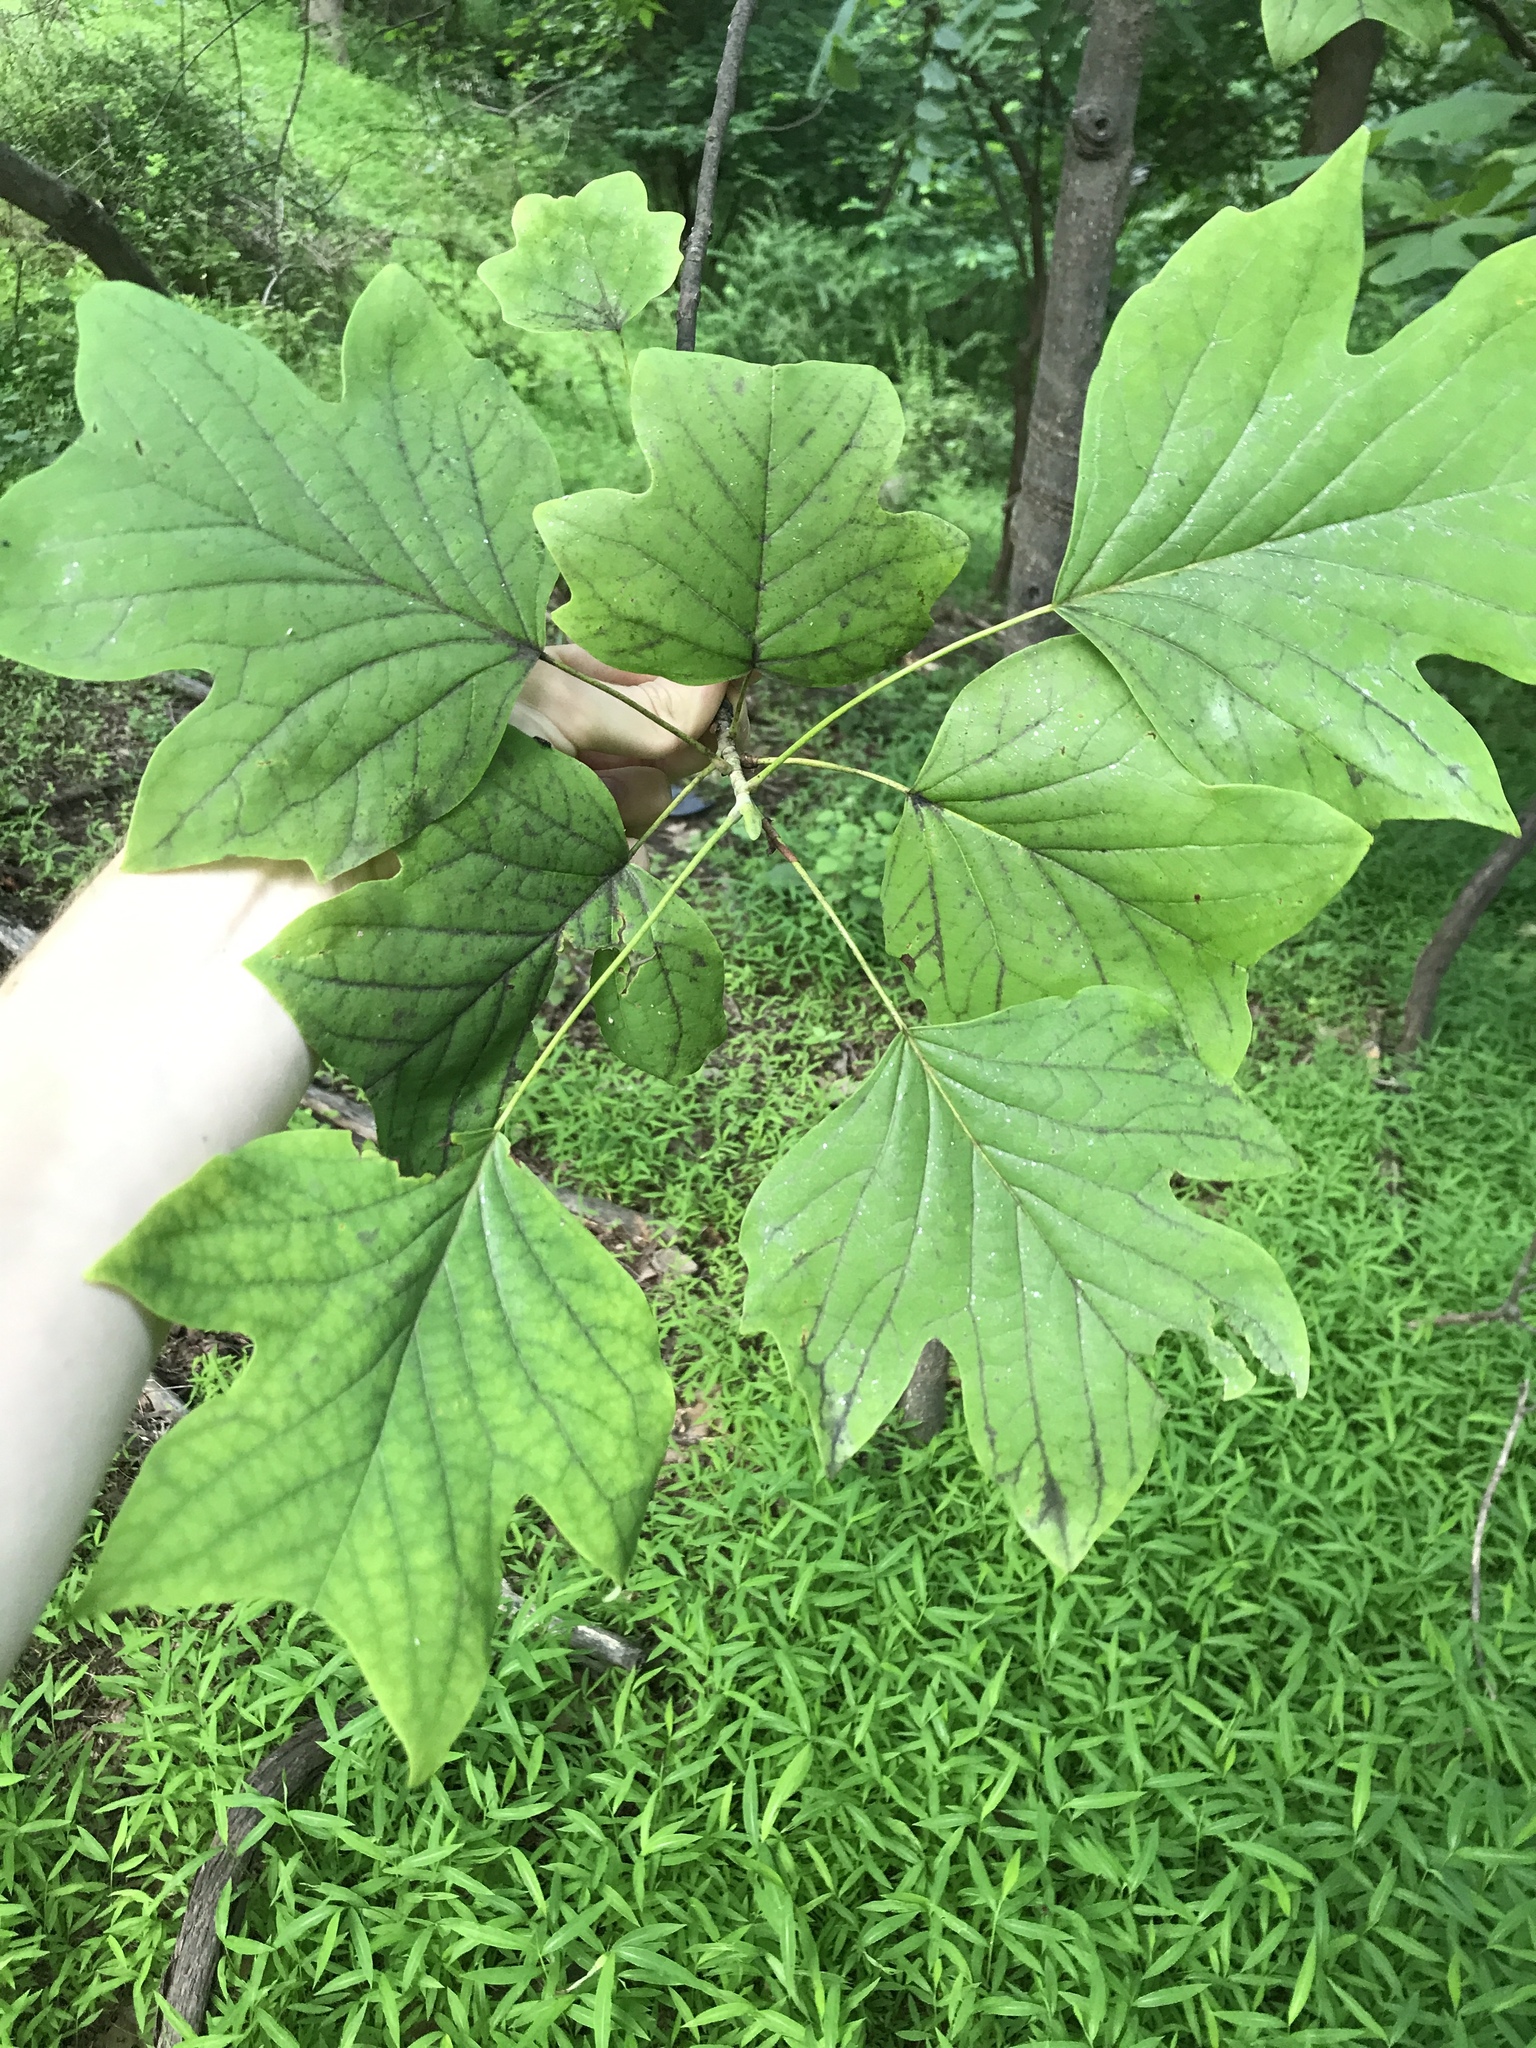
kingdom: Plantae
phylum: Tracheophyta
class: Magnoliopsida
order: Magnoliales
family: Magnoliaceae
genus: Liriodendron
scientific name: Liriodendron tulipifera
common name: Tulip tree
